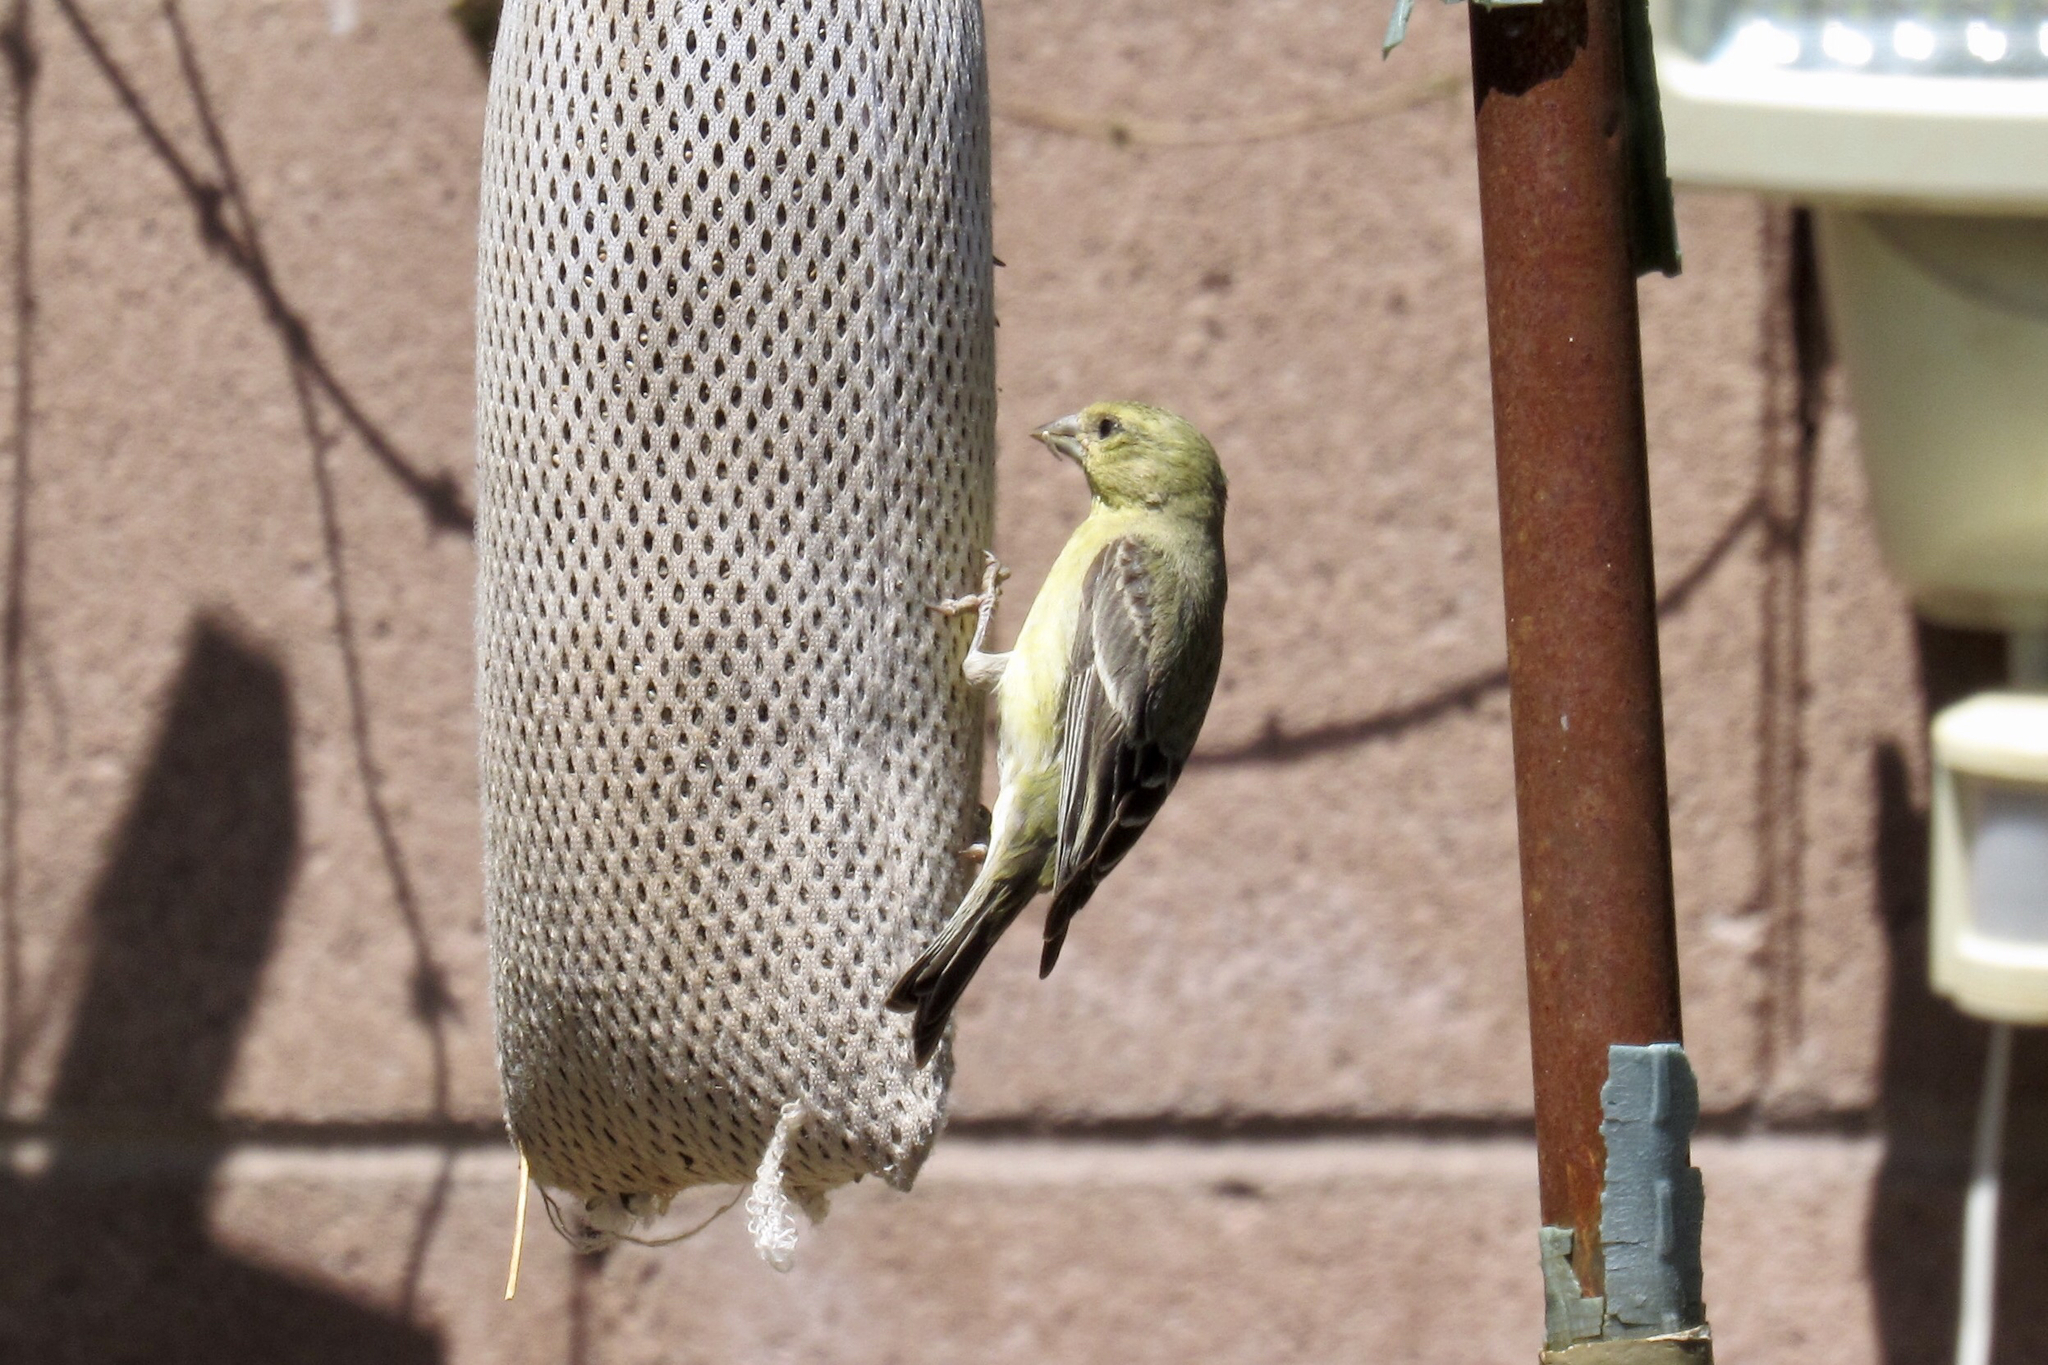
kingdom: Animalia
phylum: Chordata
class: Aves
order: Passeriformes
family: Fringillidae
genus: Spinus
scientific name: Spinus psaltria
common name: Lesser goldfinch
